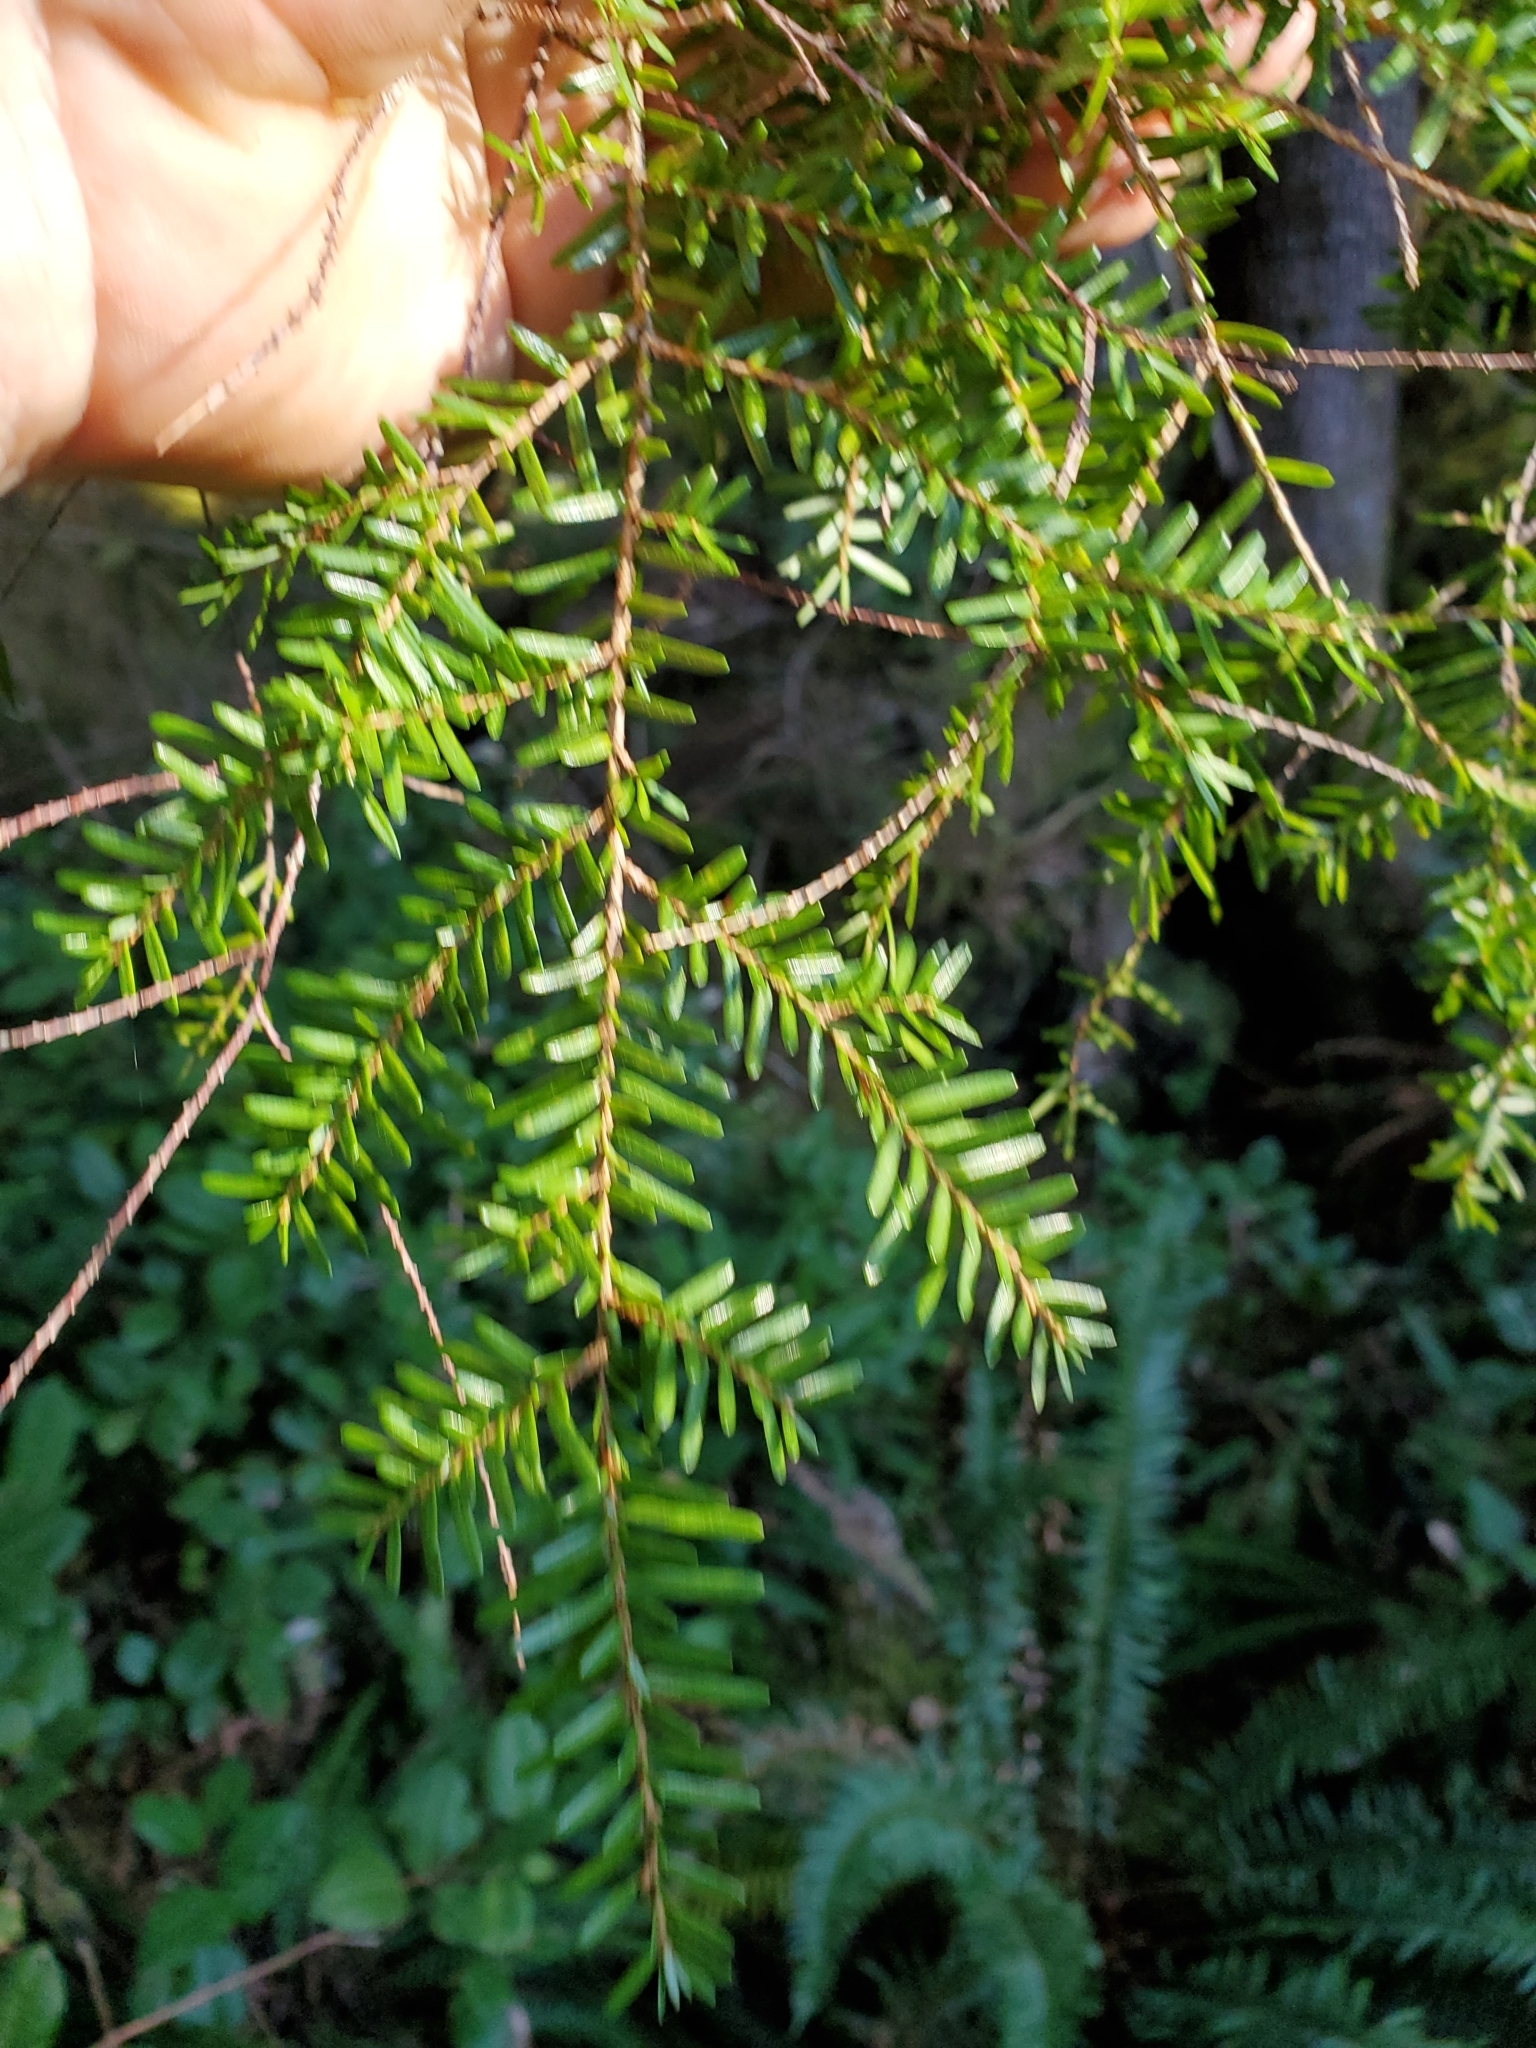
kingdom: Plantae
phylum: Tracheophyta
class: Pinopsida
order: Pinales
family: Pinaceae
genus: Tsuga
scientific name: Tsuga heterophylla
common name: Western hemlock
